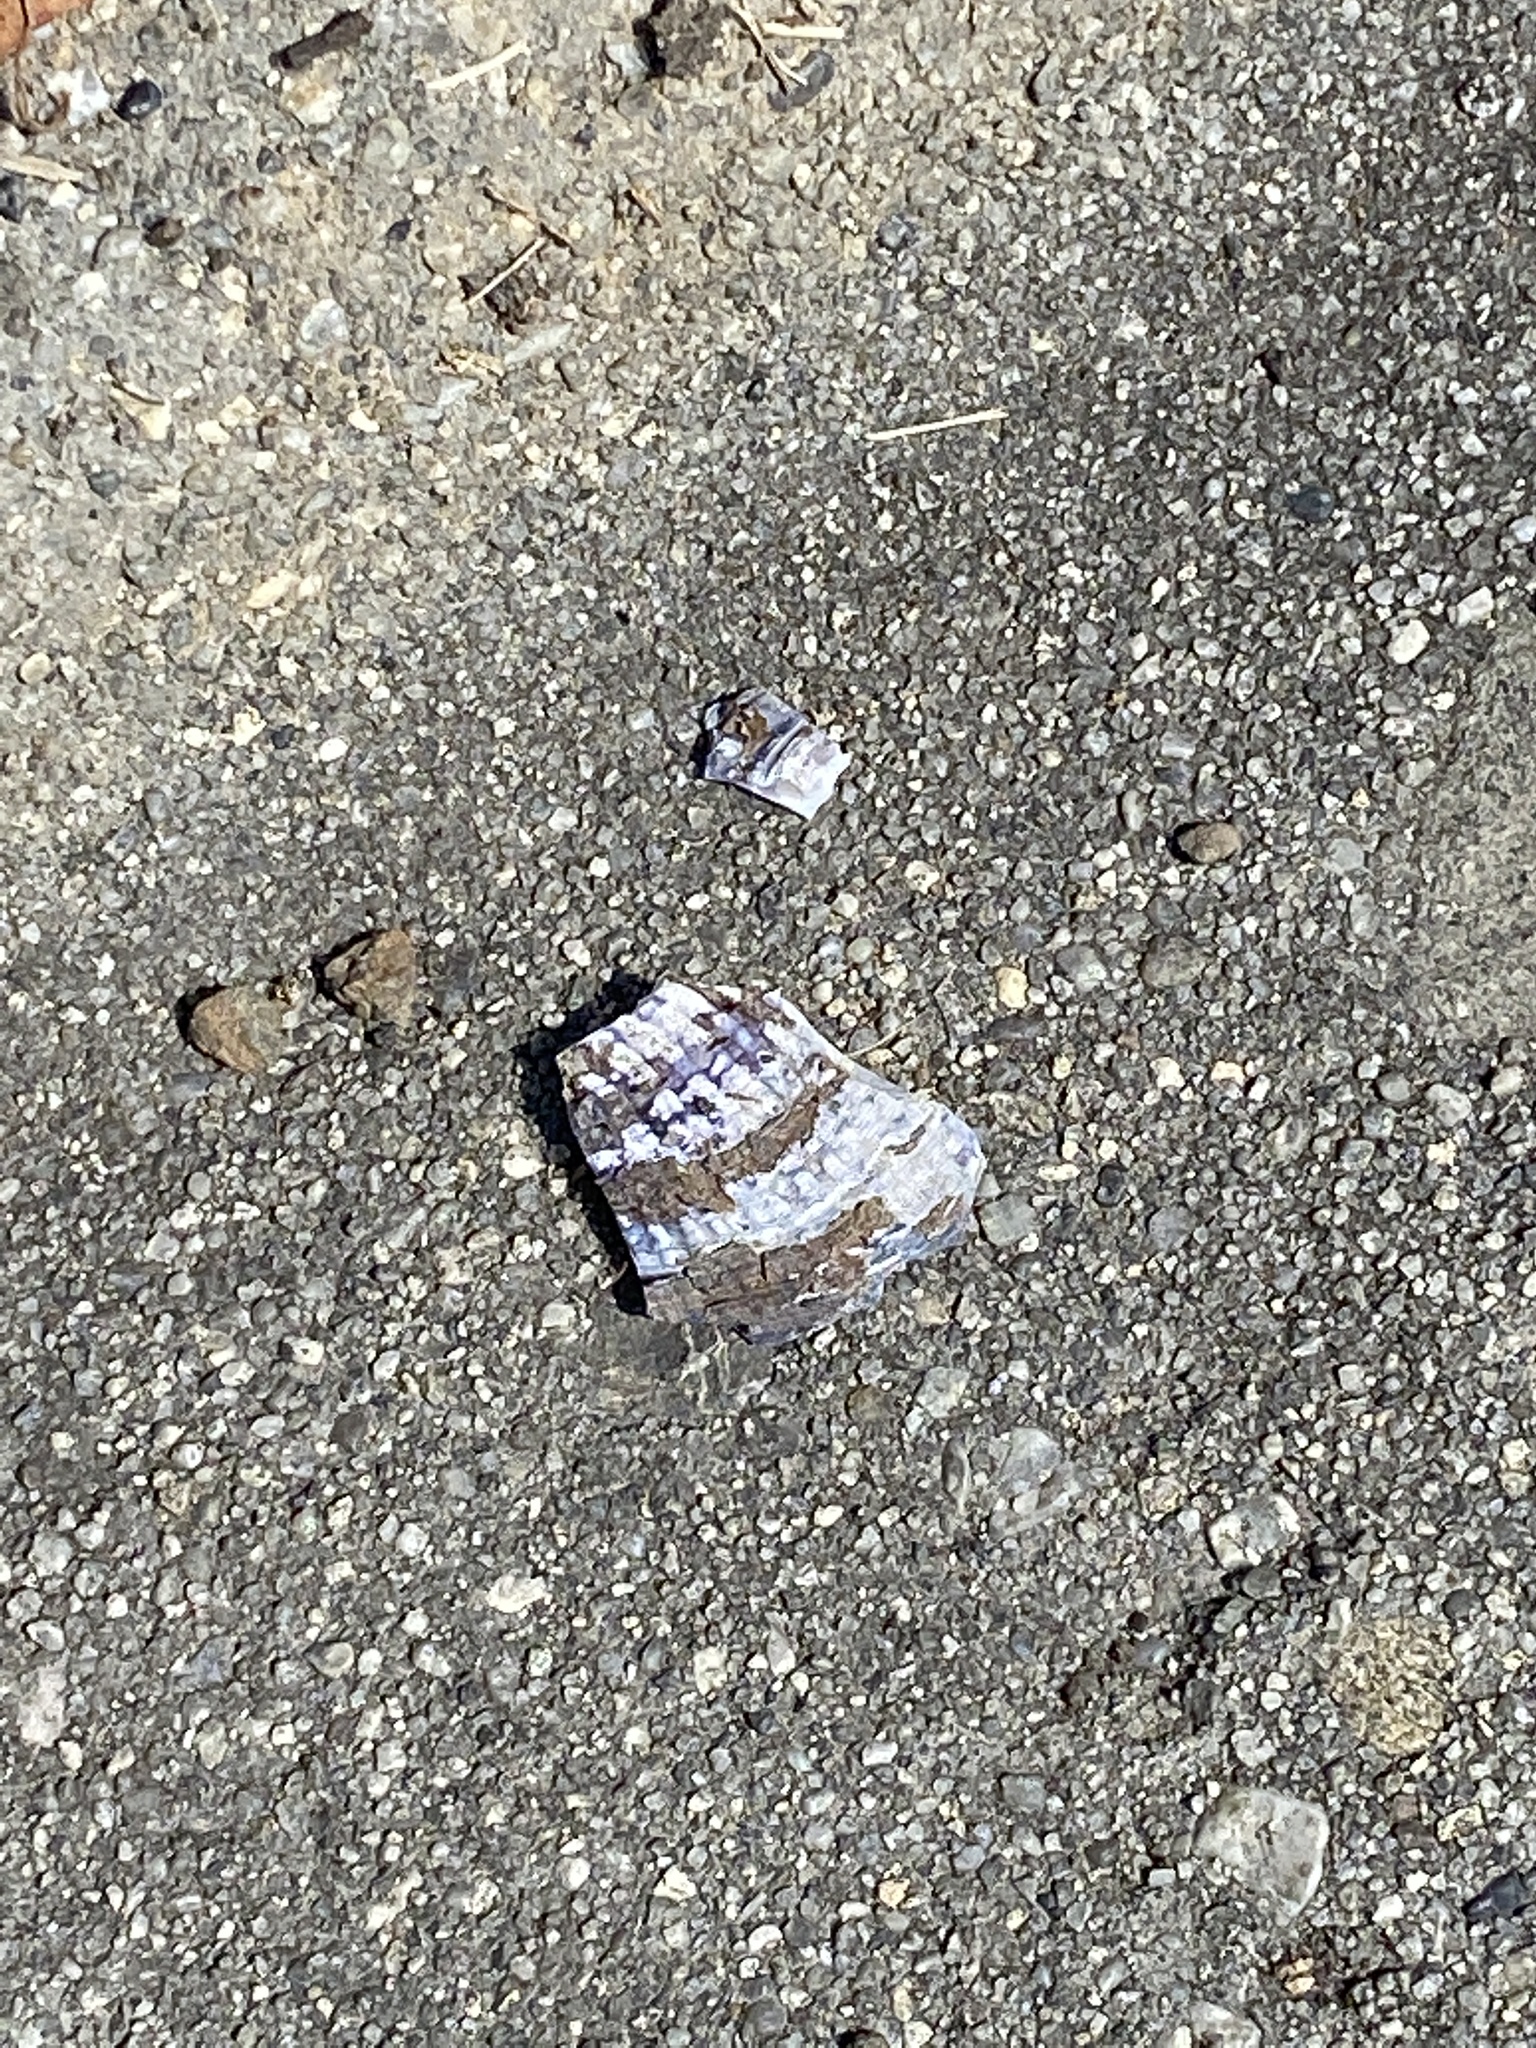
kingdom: Animalia
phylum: Mollusca
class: Bivalvia
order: Mytilida
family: Mytilidae
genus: Geukensia
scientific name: Geukensia demissa
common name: Ribbed mussel
